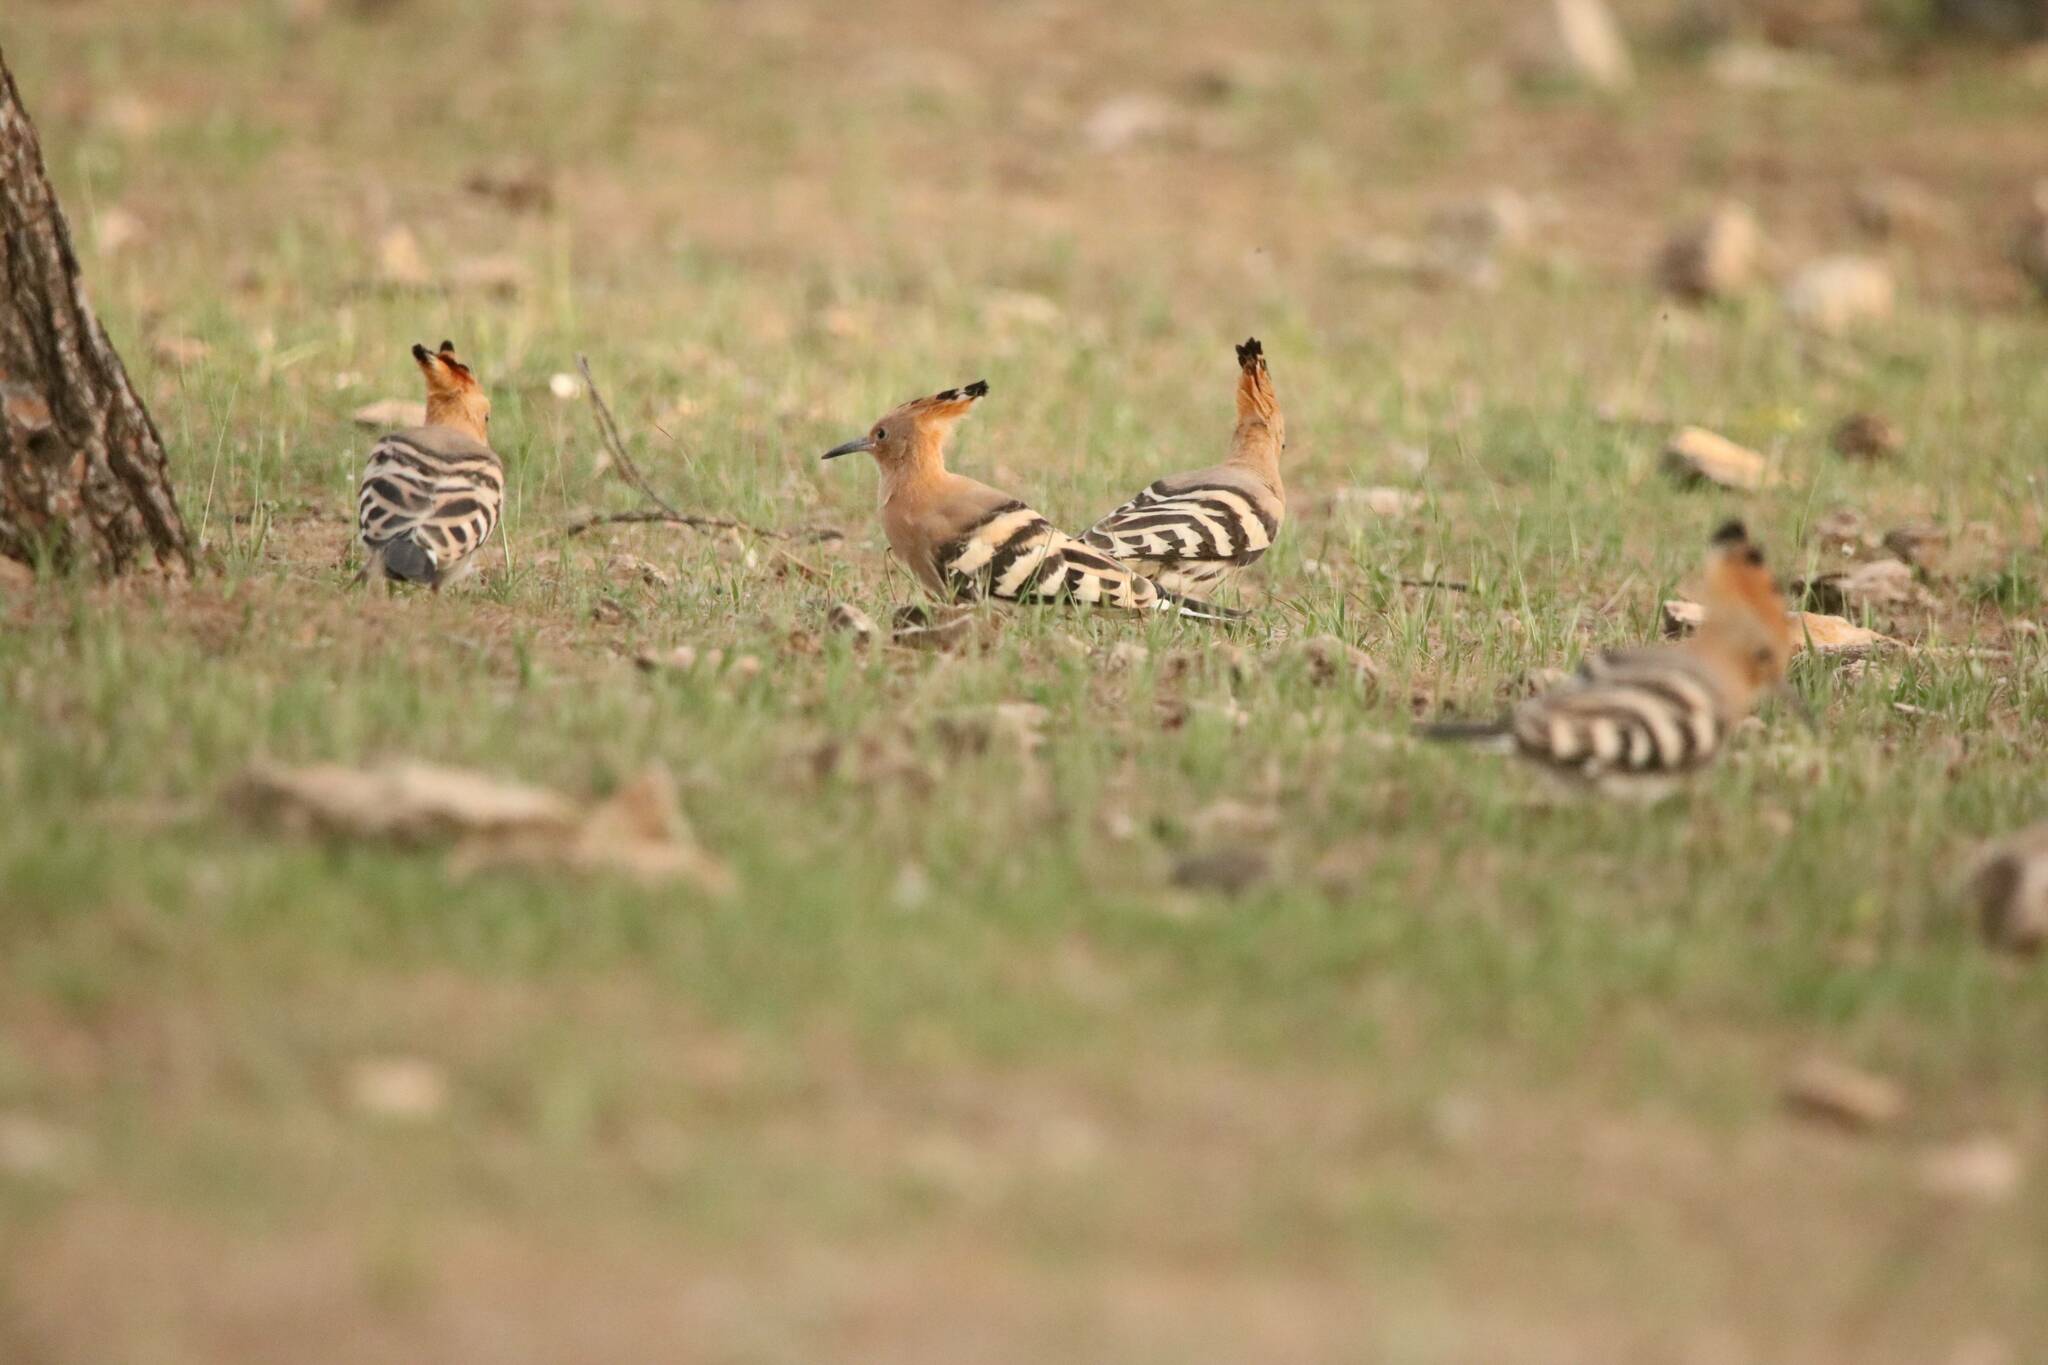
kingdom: Animalia
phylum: Chordata
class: Aves
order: Bucerotiformes
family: Upupidae
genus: Upupa
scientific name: Upupa epops
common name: Eurasian hoopoe
